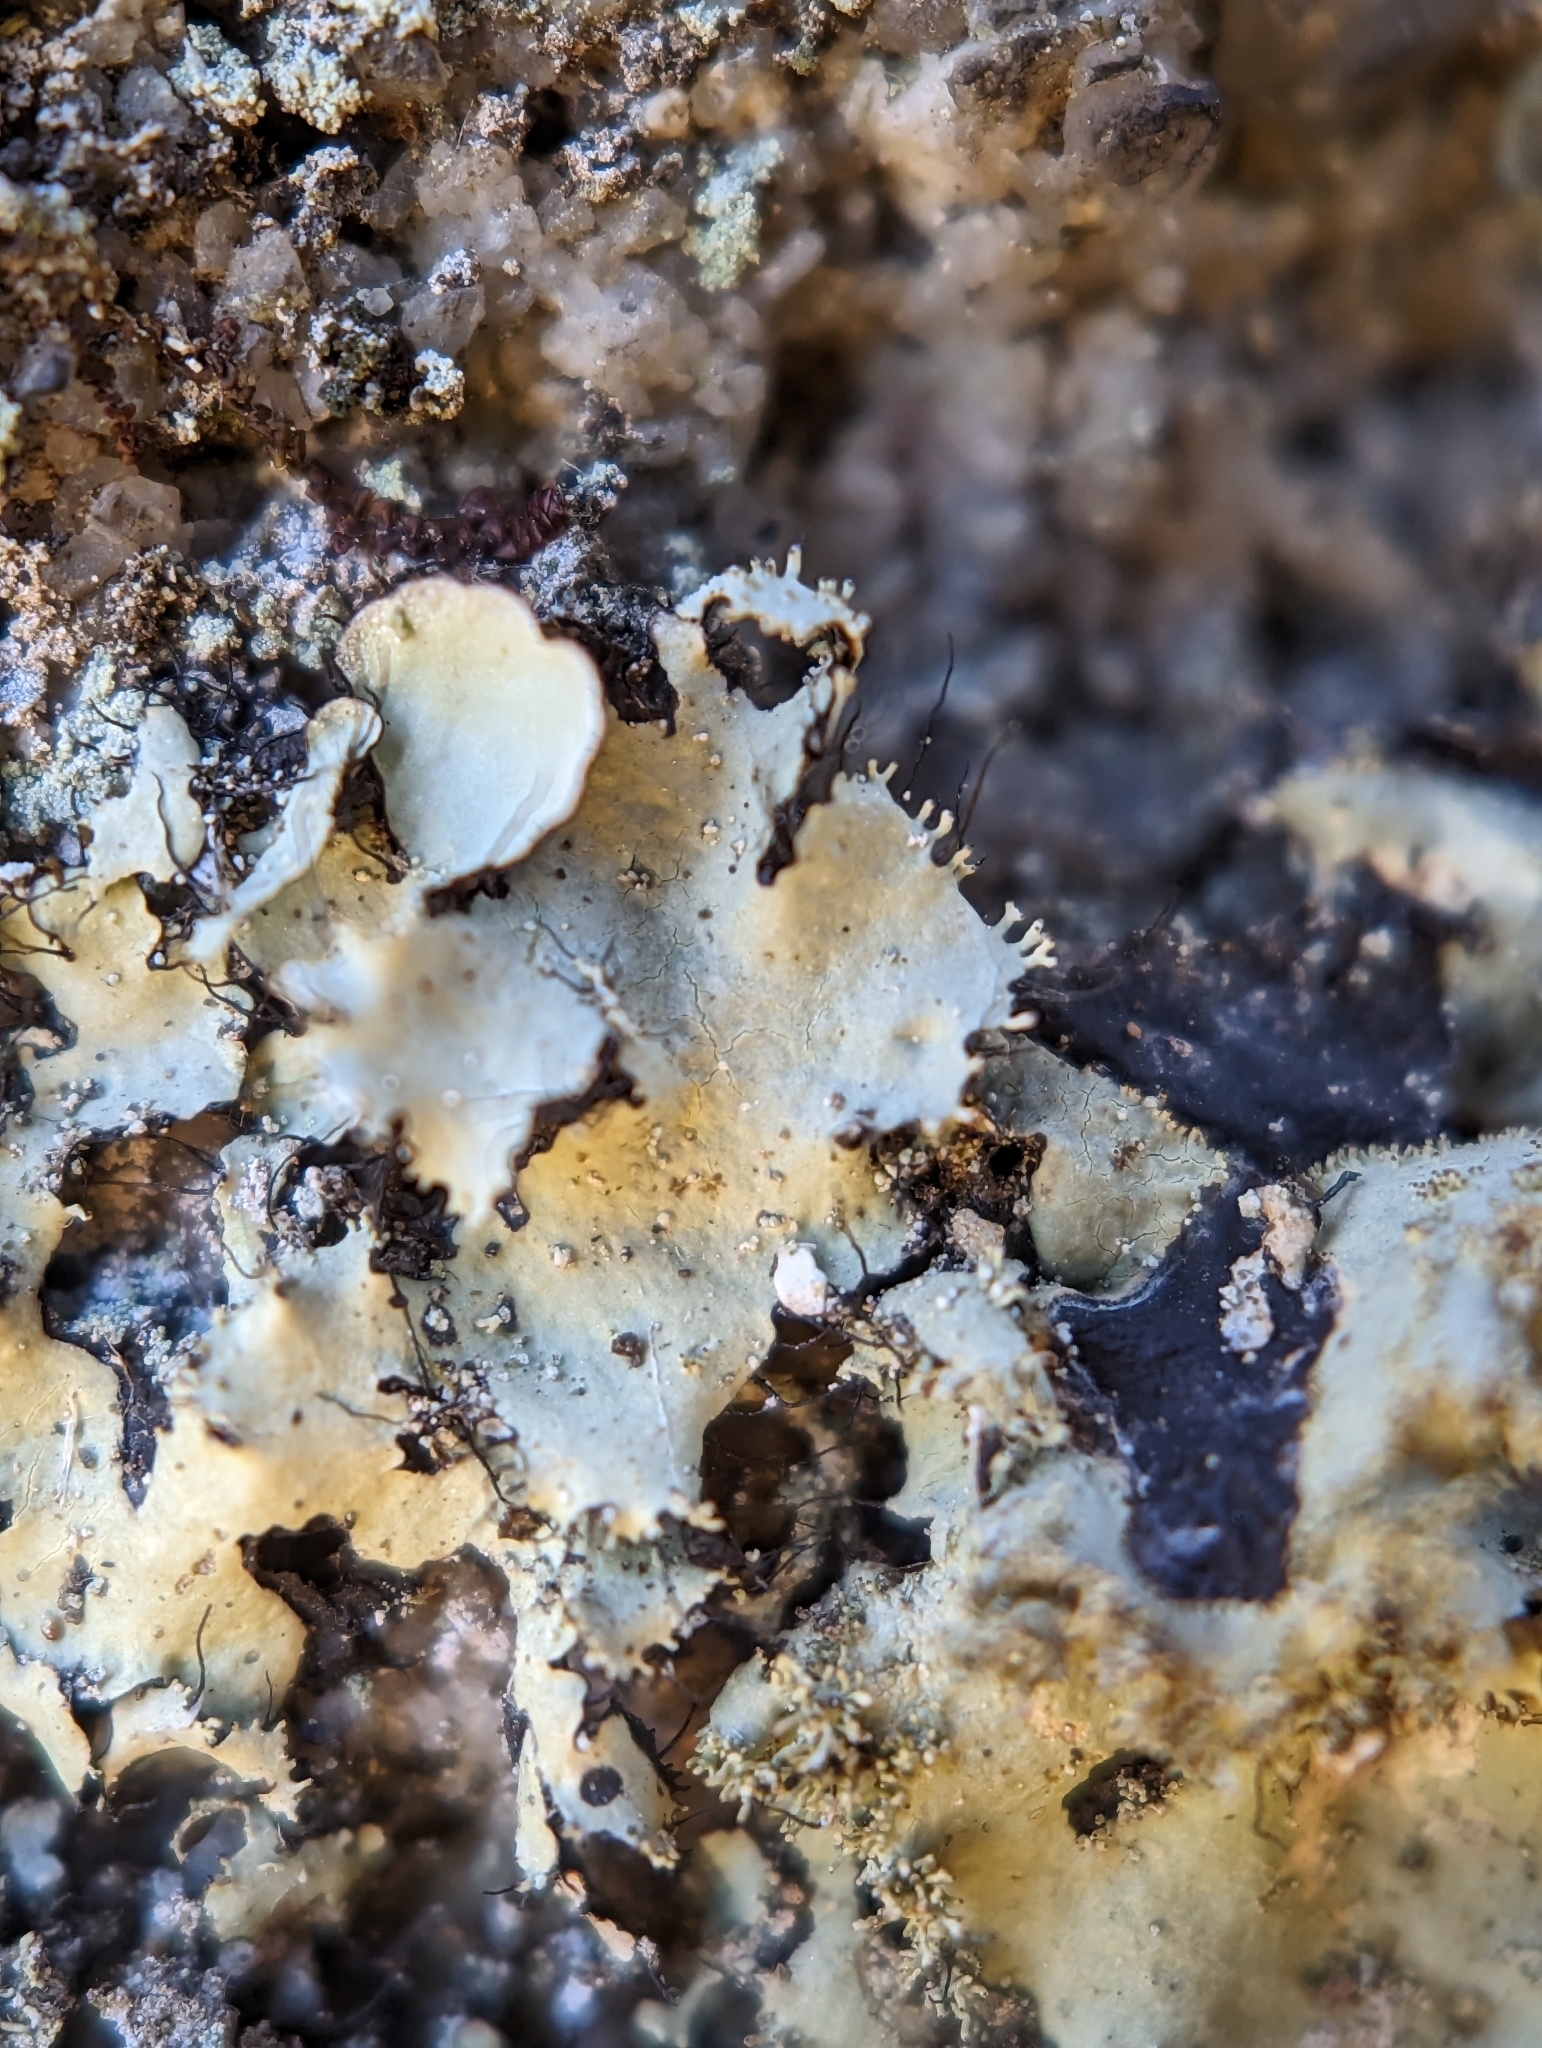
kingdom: Fungi
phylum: Ascomycota
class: Lecanoromycetes
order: Lecanorales
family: Parmeliaceae
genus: Parmotrema
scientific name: Parmotrema xanthinum
